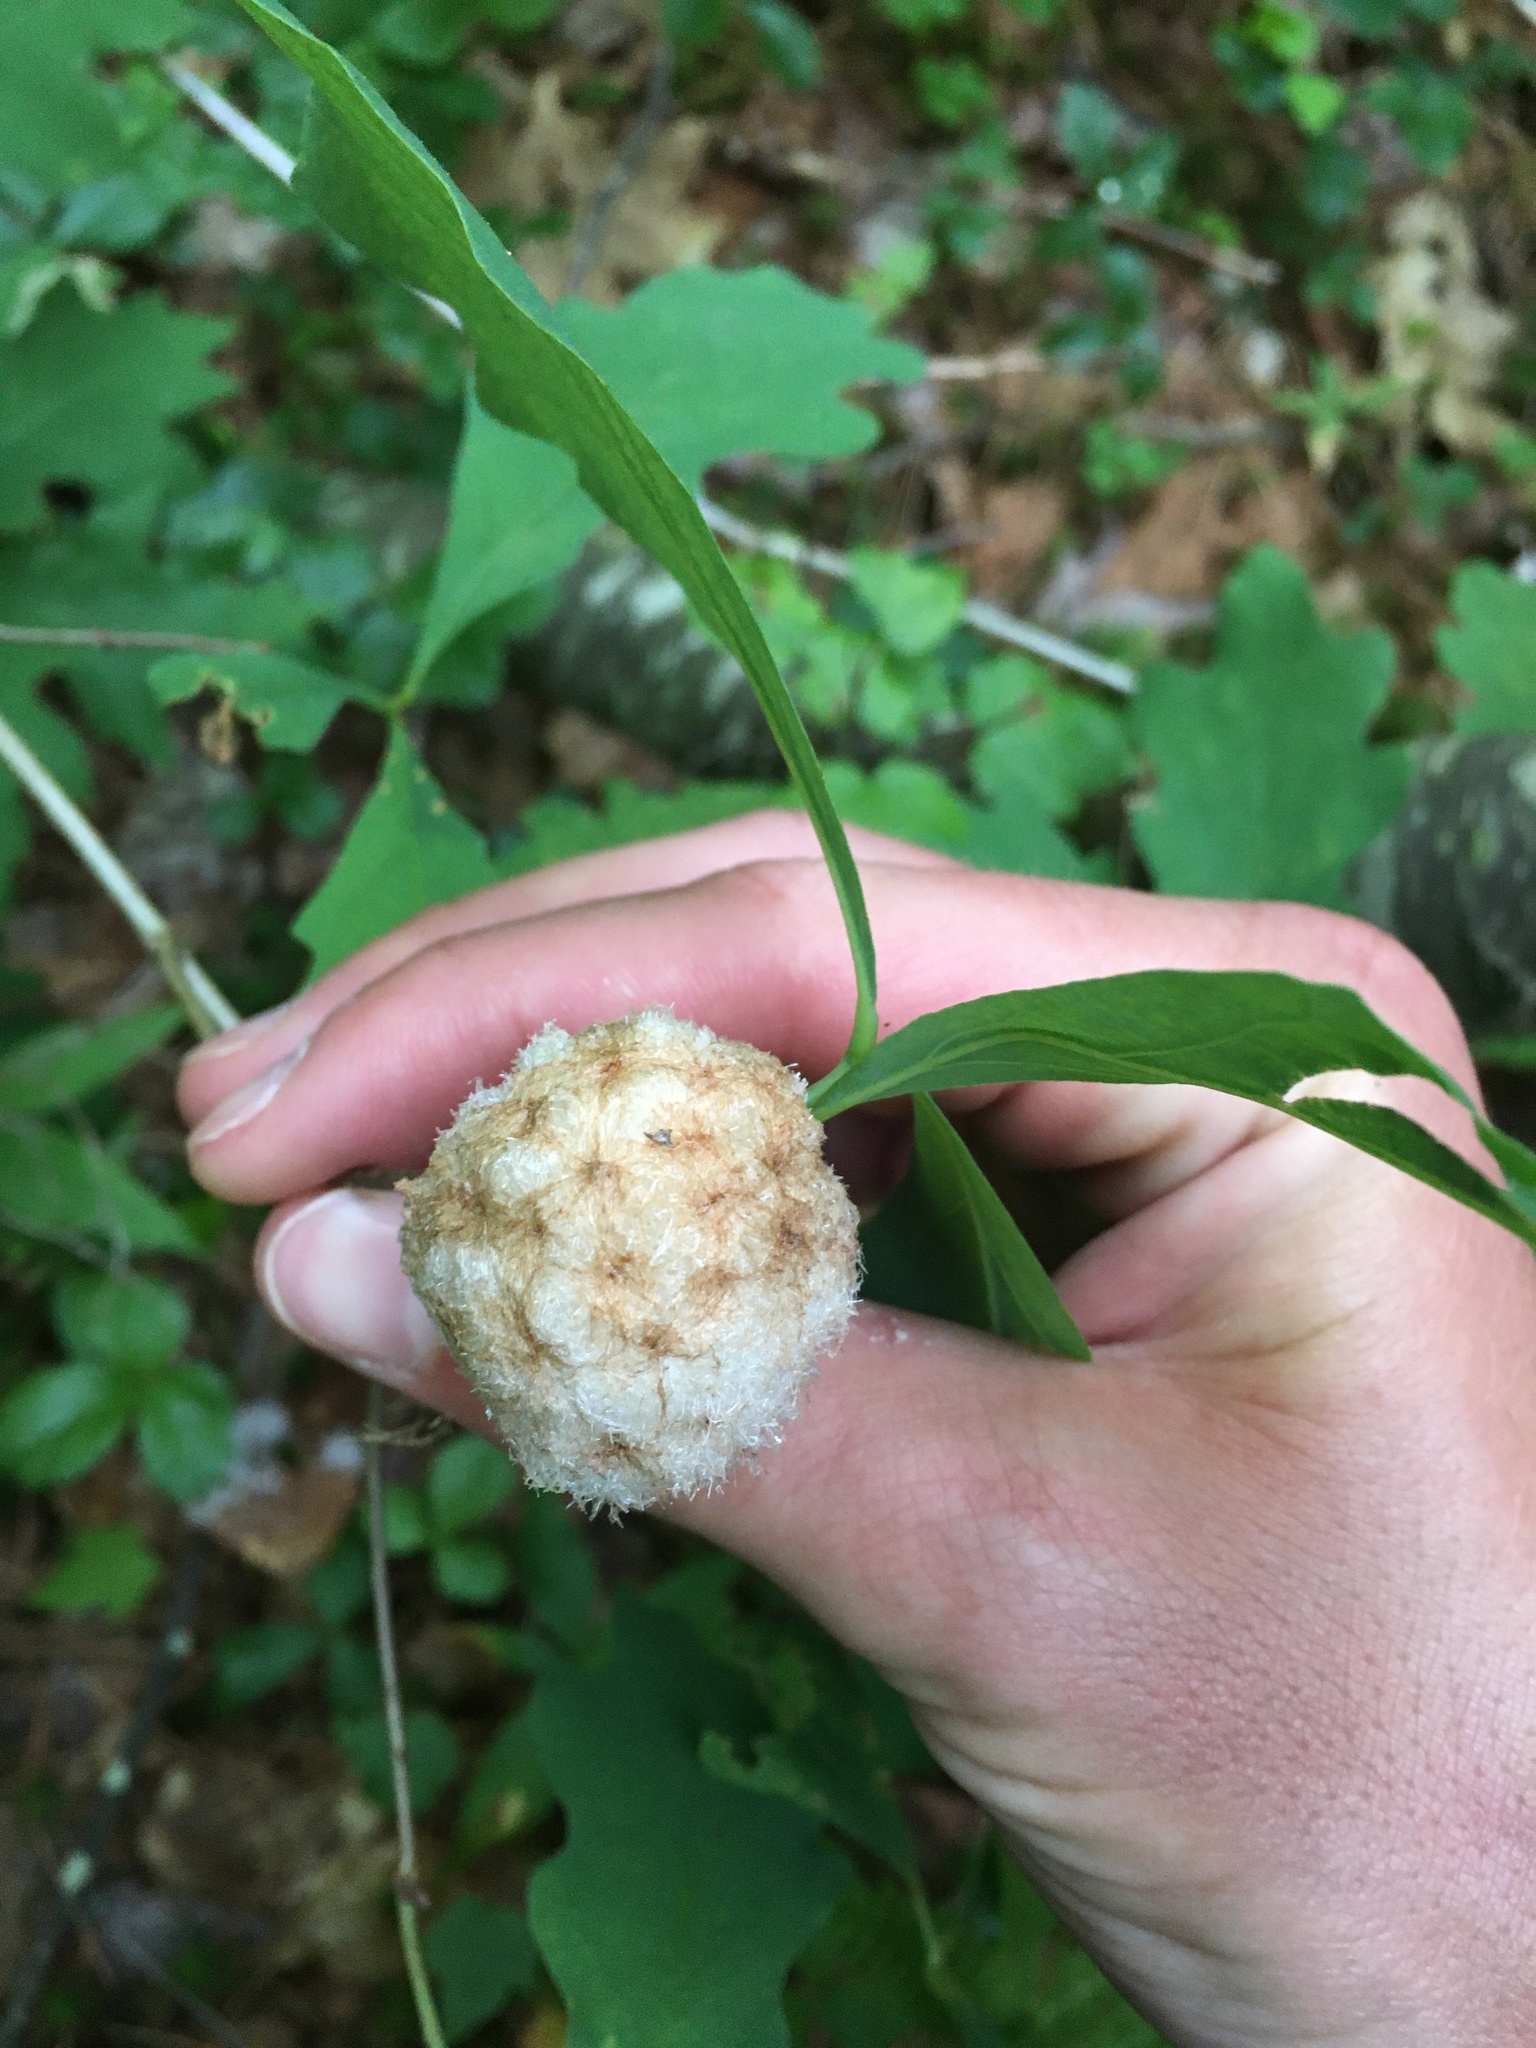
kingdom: Animalia
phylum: Arthropoda
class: Insecta
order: Hymenoptera
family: Cynipidae
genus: Callirhytis
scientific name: Callirhytis
